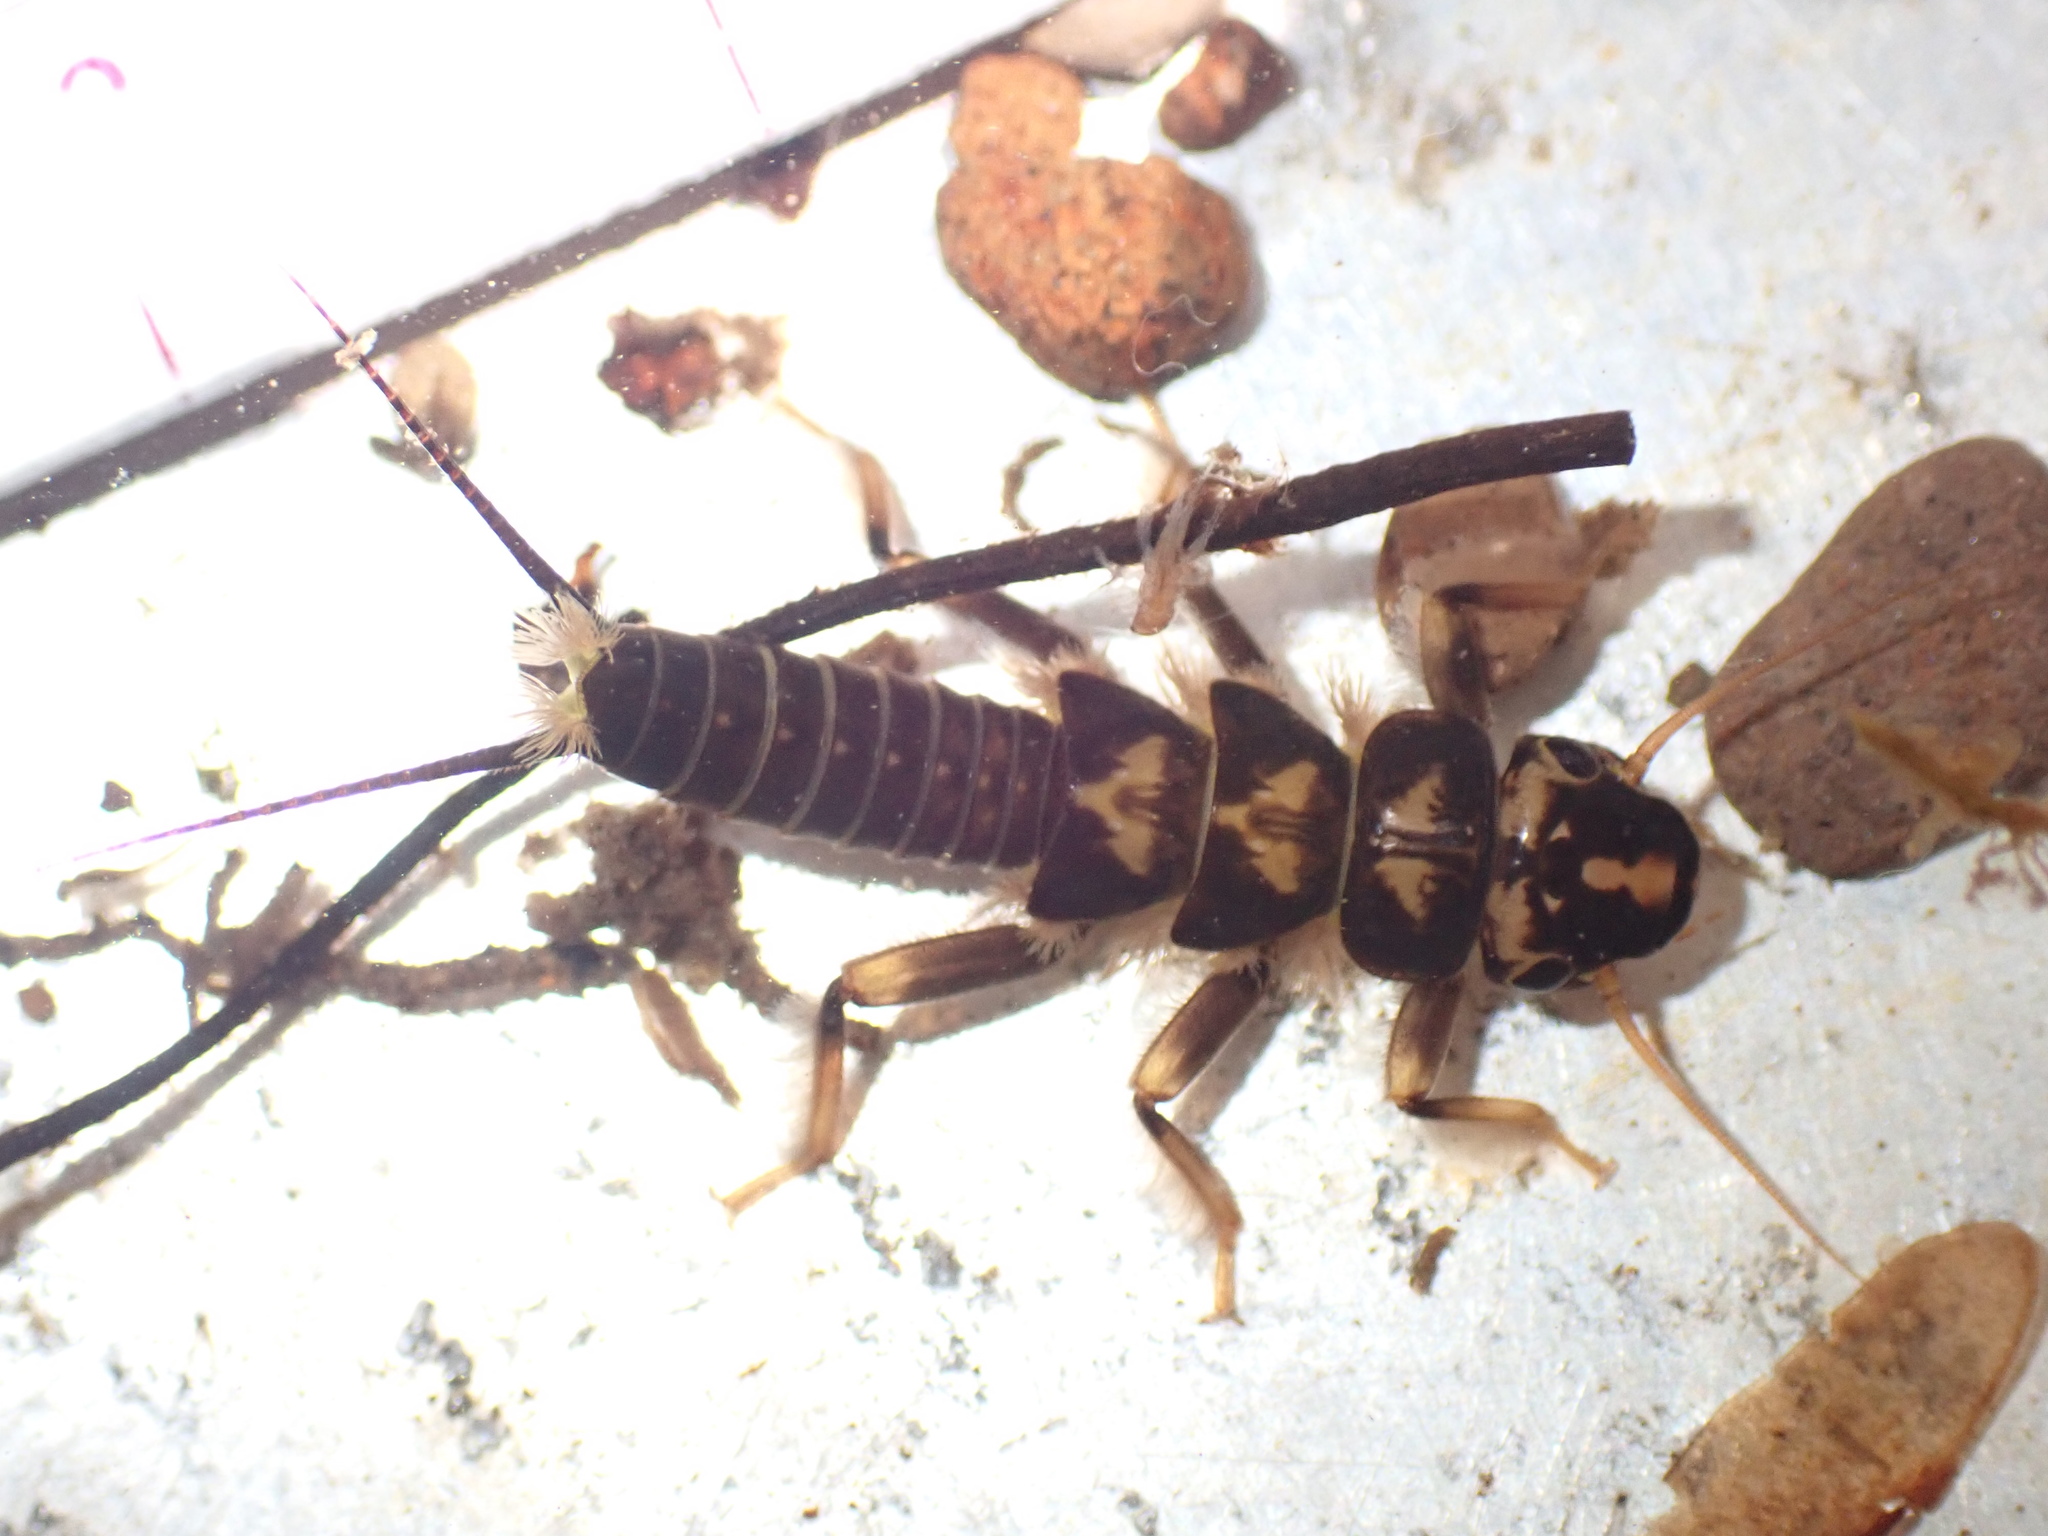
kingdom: Animalia
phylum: Arthropoda
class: Insecta
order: Plecoptera
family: Perlidae
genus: Hesperoperla
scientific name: Hesperoperla pacifica
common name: Golden stone
